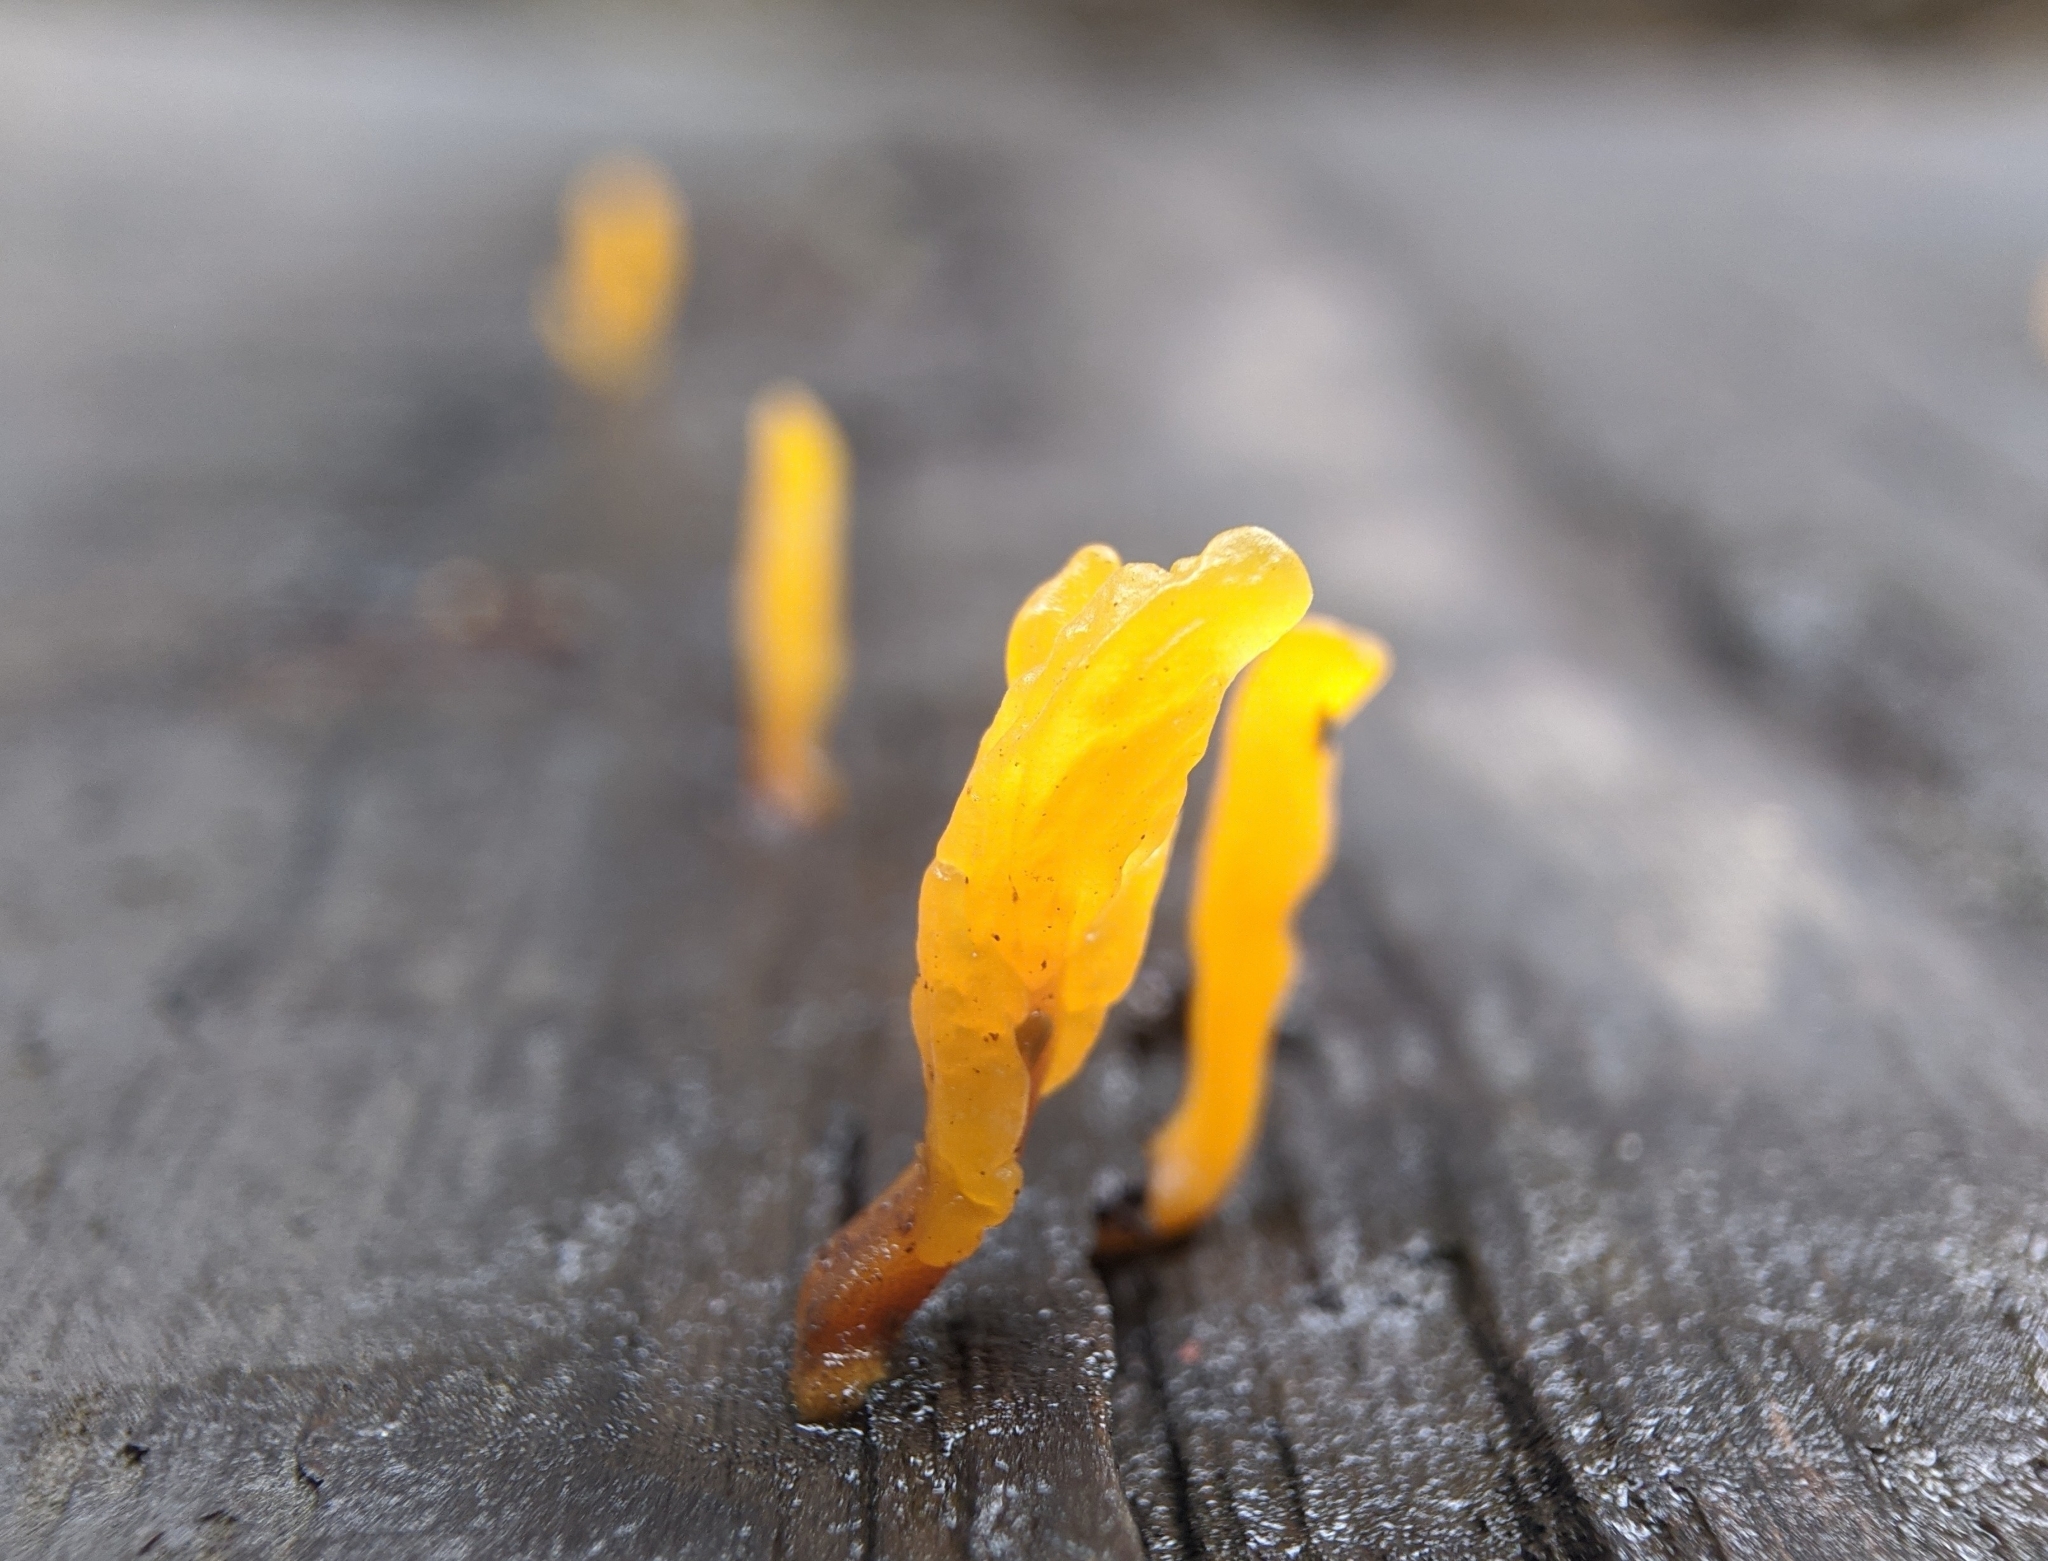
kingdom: Fungi
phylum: Basidiomycota
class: Dacrymycetes
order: Dacrymycetales
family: Dacrymycetaceae
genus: Dacrymyces
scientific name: Dacrymyces spathularius
